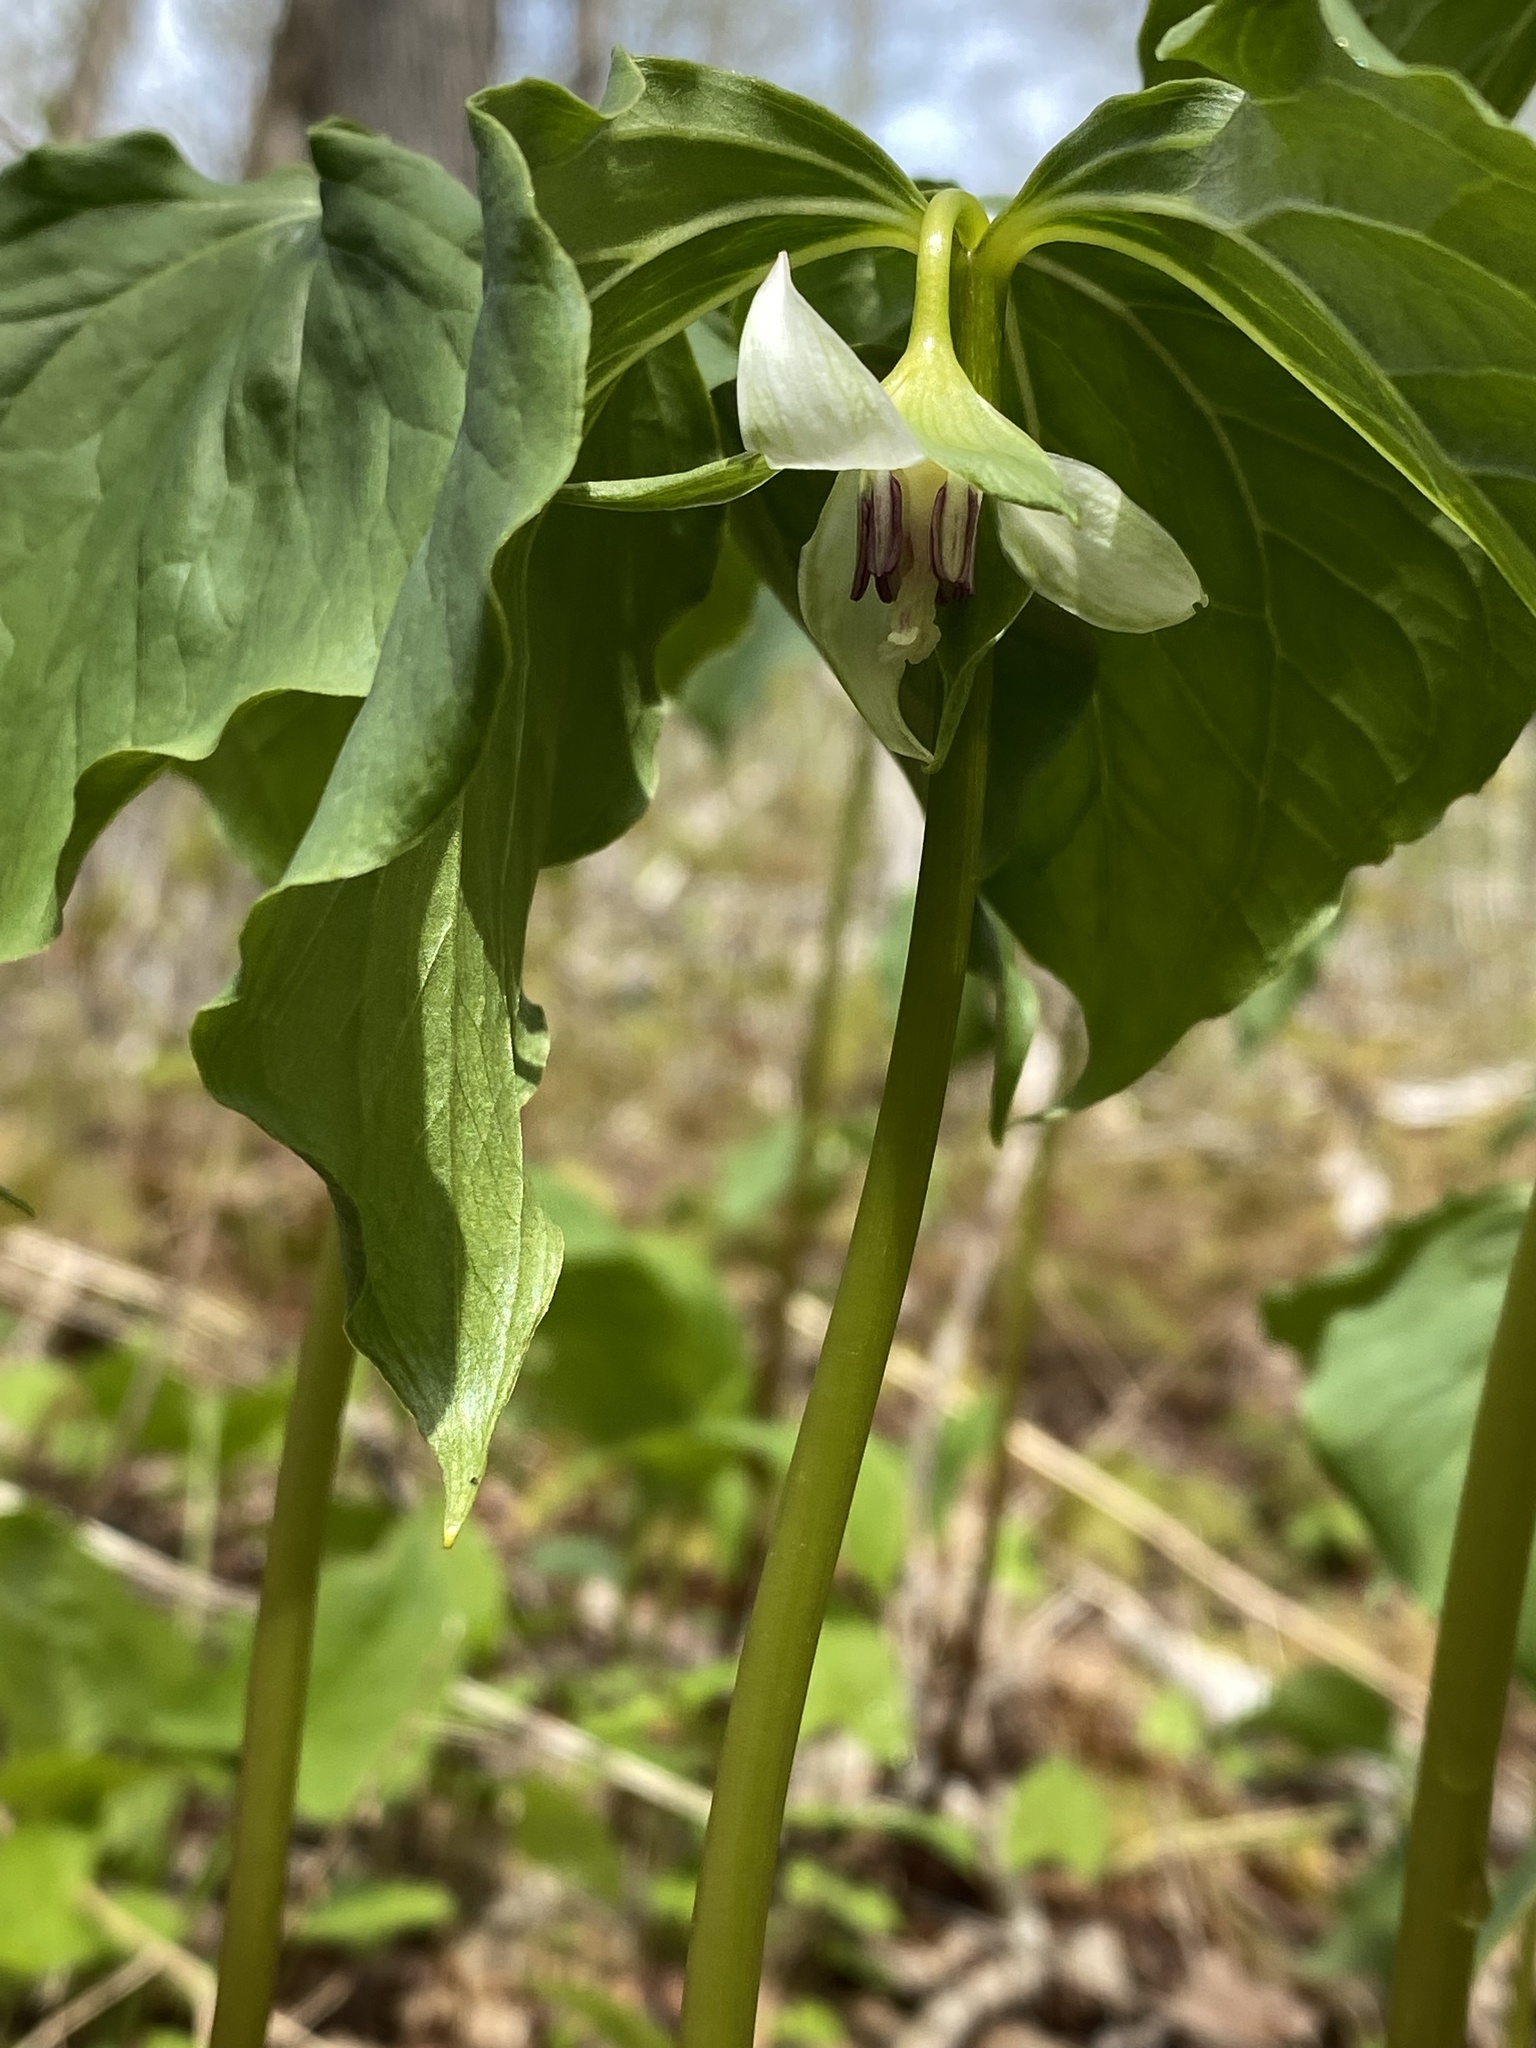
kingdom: Plantae
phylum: Tracheophyta
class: Liliopsida
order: Liliales
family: Melanthiaceae
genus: Trillium
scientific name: Trillium cernuum
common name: Nodding trillium
